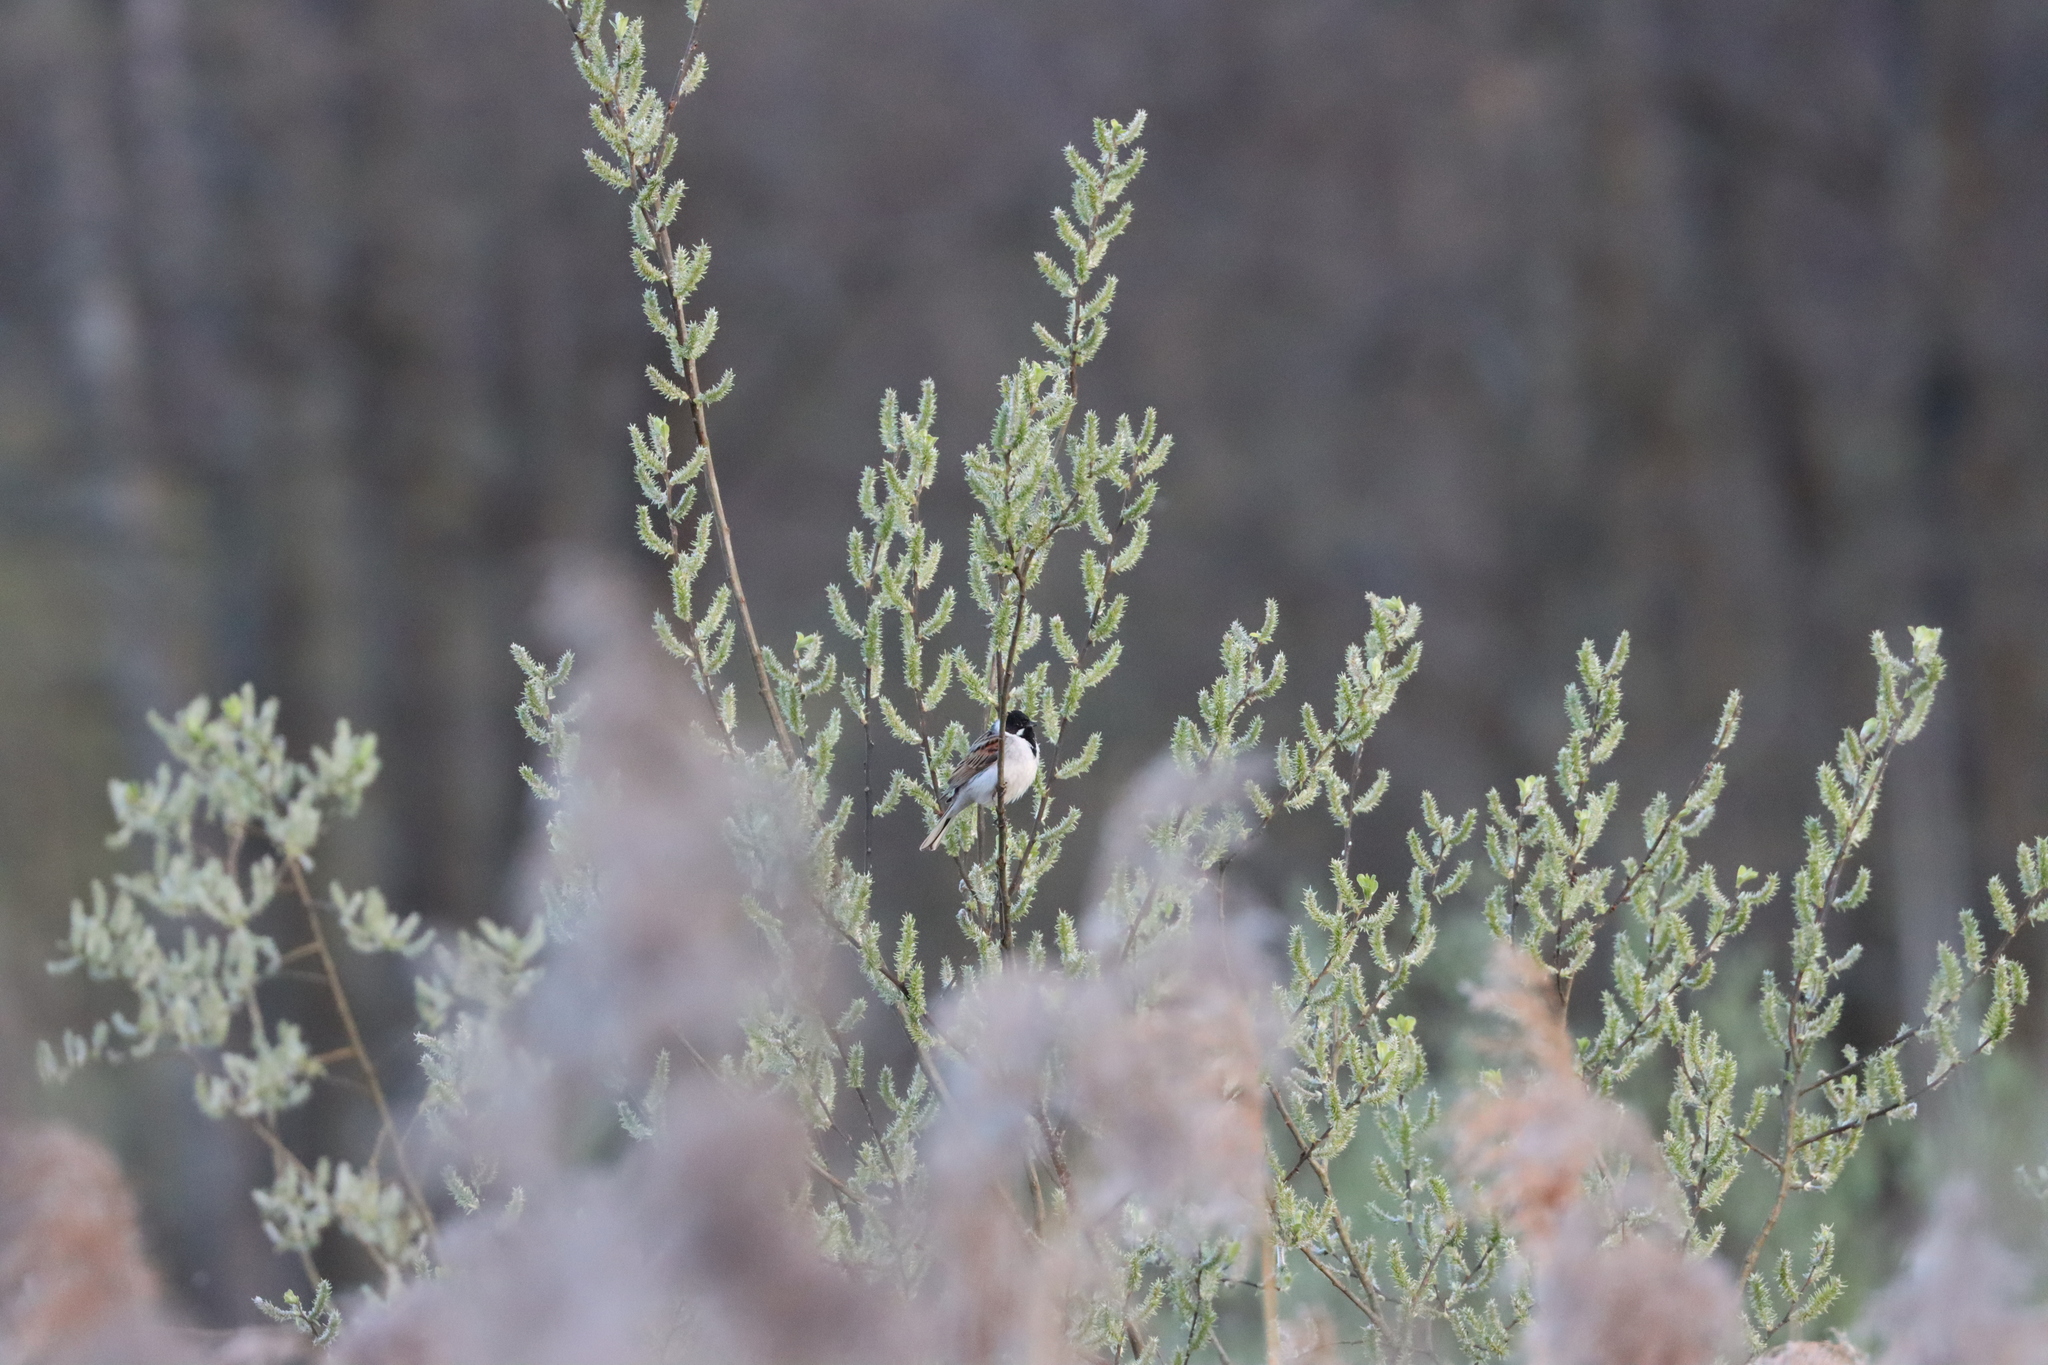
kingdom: Animalia
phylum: Chordata
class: Aves
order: Passeriformes
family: Emberizidae
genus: Emberiza
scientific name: Emberiza schoeniclus
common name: Reed bunting
